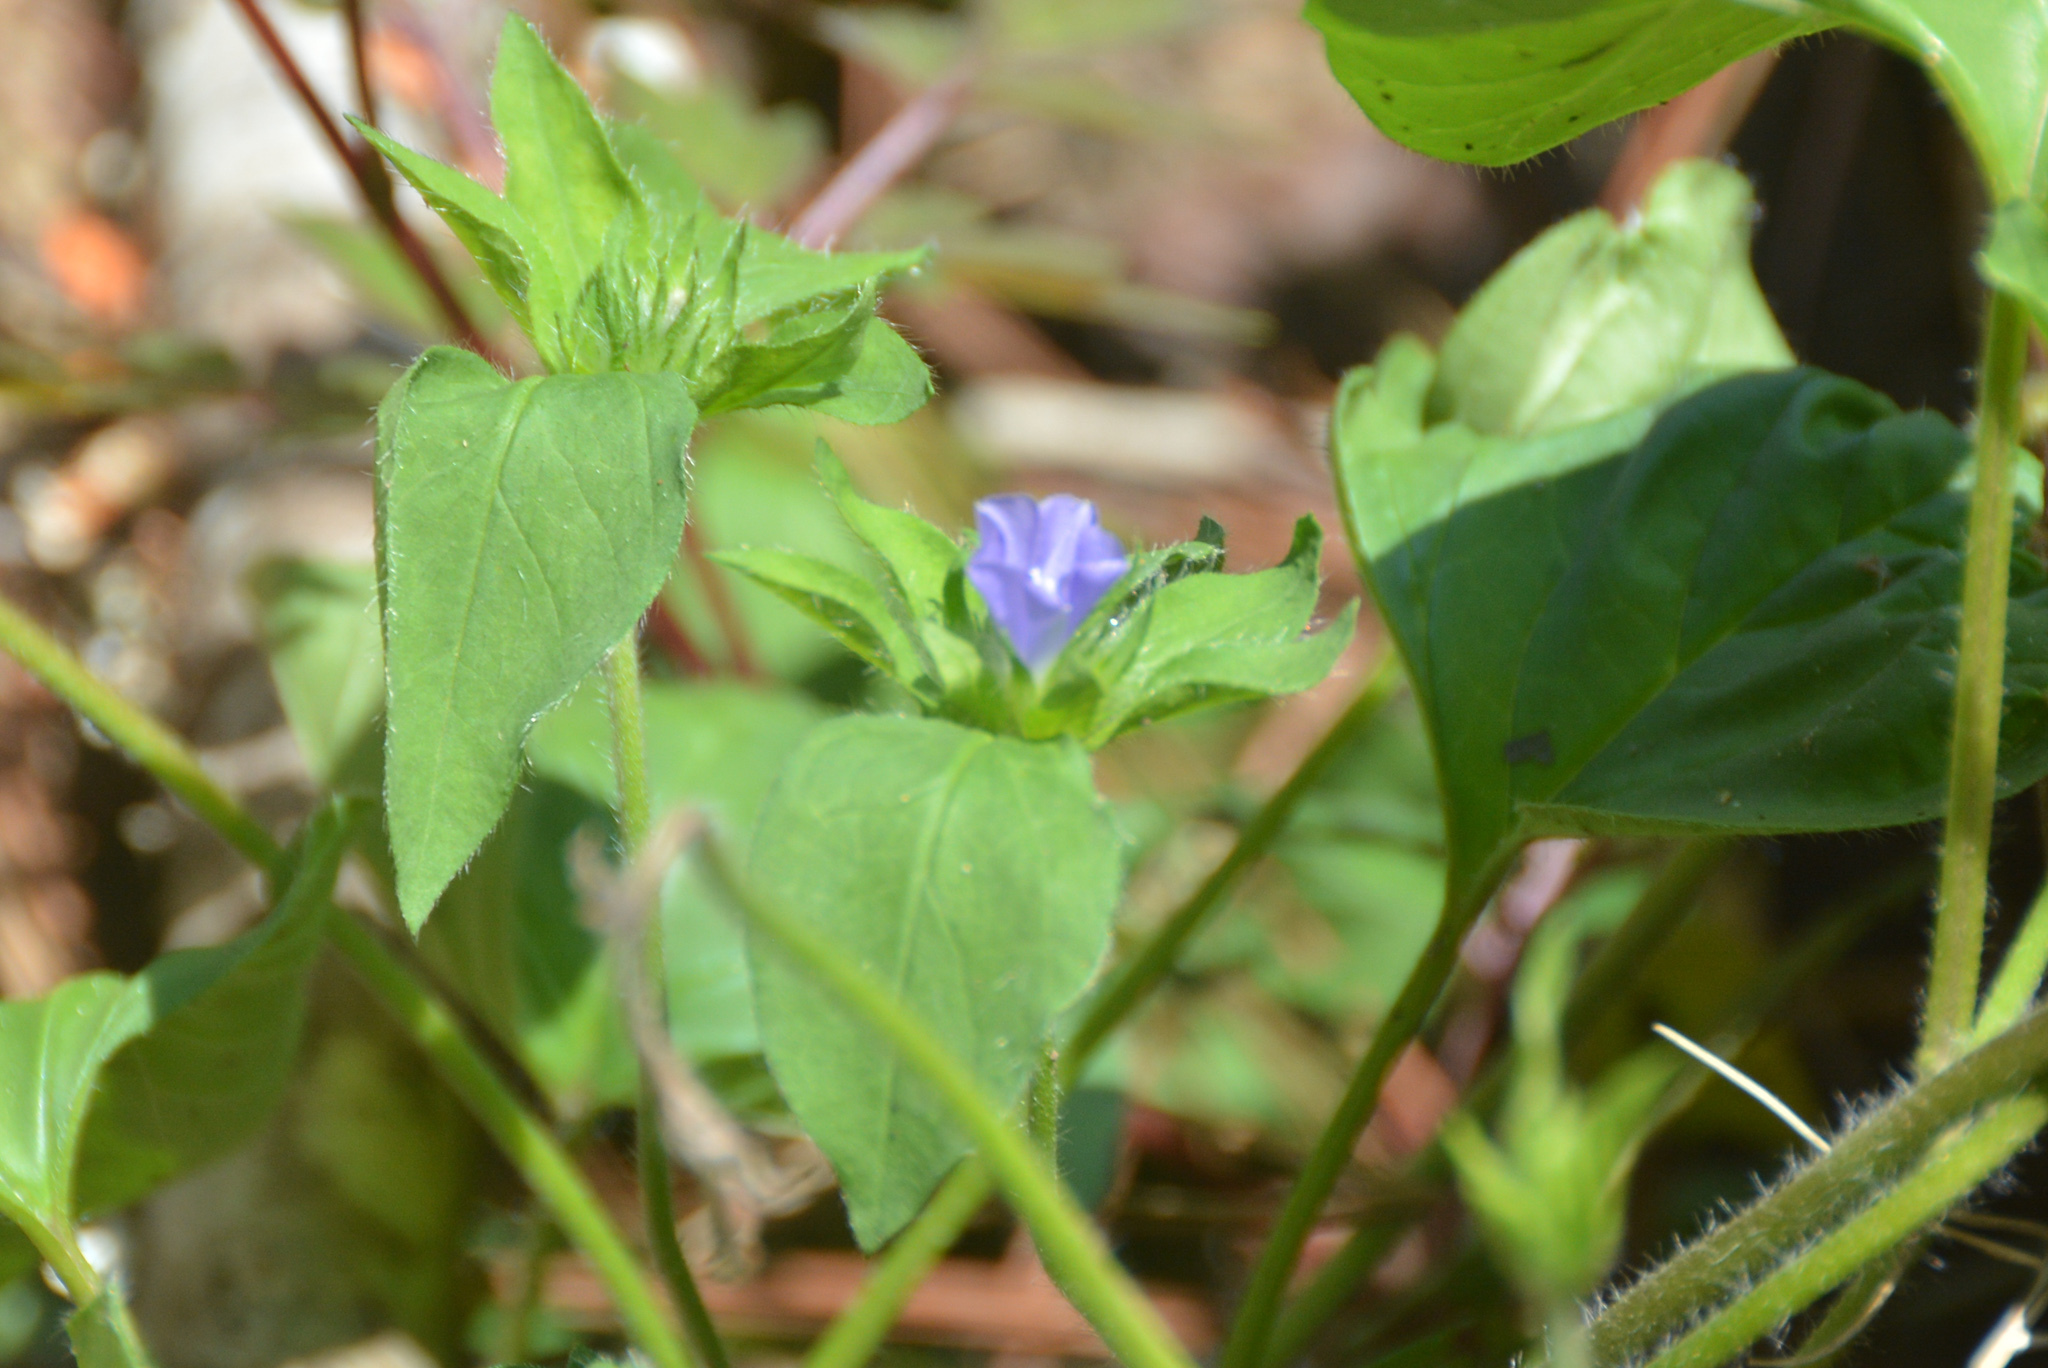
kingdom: Plantae
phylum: Tracheophyta
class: Magnoliopsida
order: Solanales
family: Convolvulaceae
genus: Jacquemontia
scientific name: Jacquemontia tamnifolia
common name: Hairy clustervine
